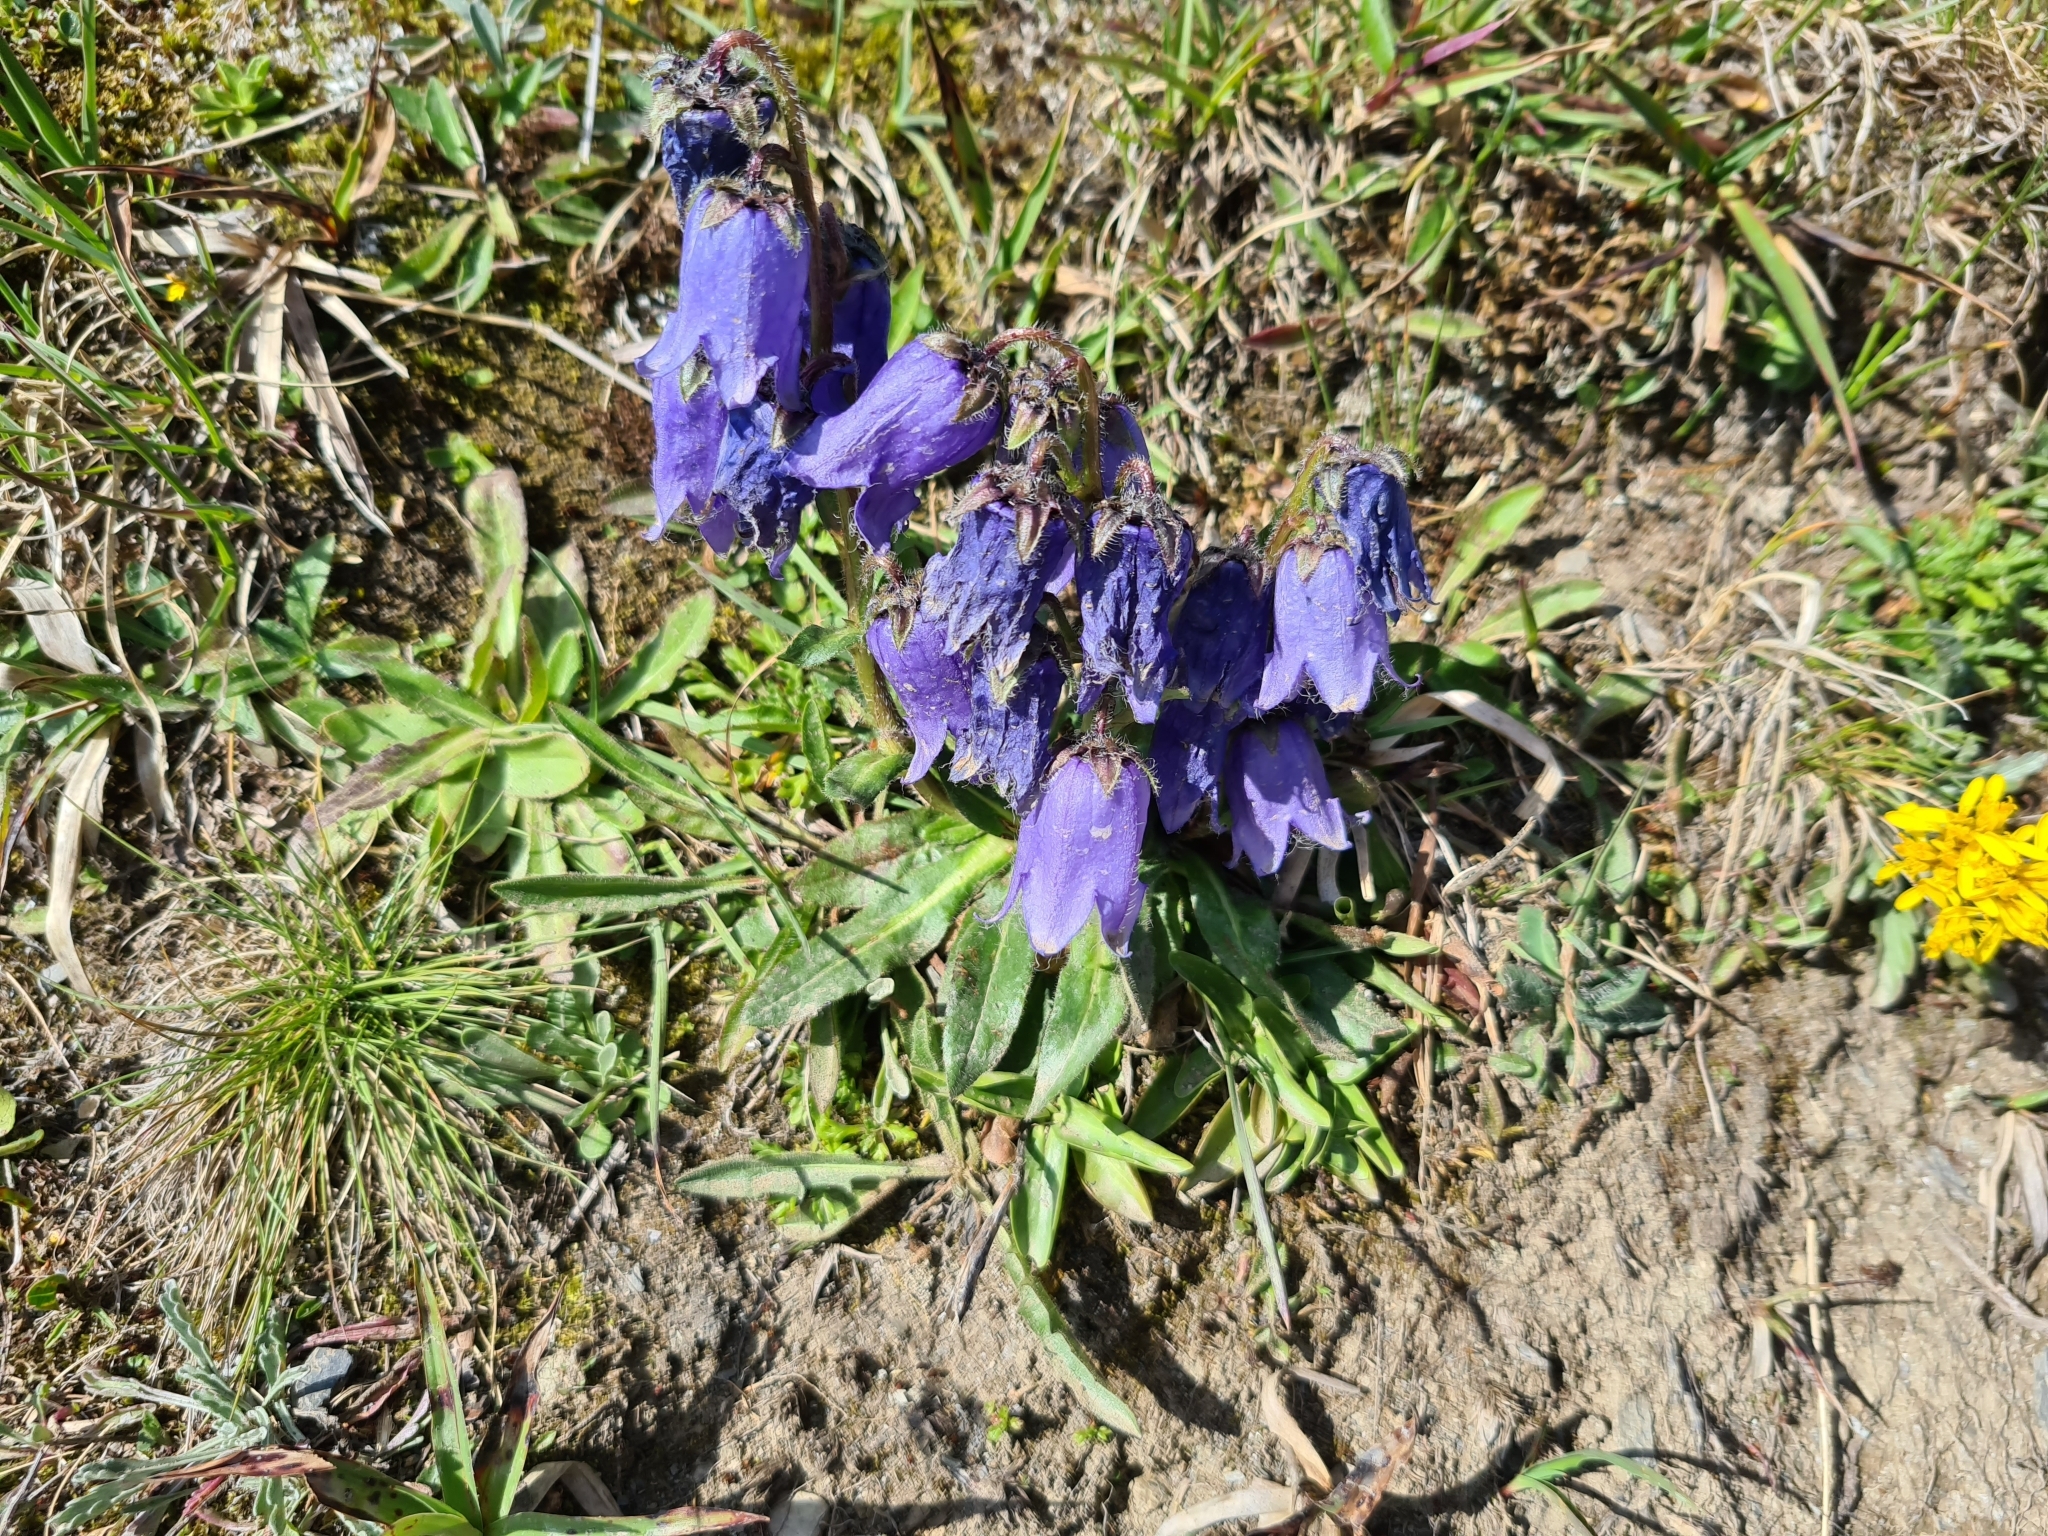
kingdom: Plantae
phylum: Tracheophyta
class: Magnoliopsida
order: Asterales
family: Campanulaceae
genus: Campanula
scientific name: Campanula barbata
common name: Bearded bellflower
